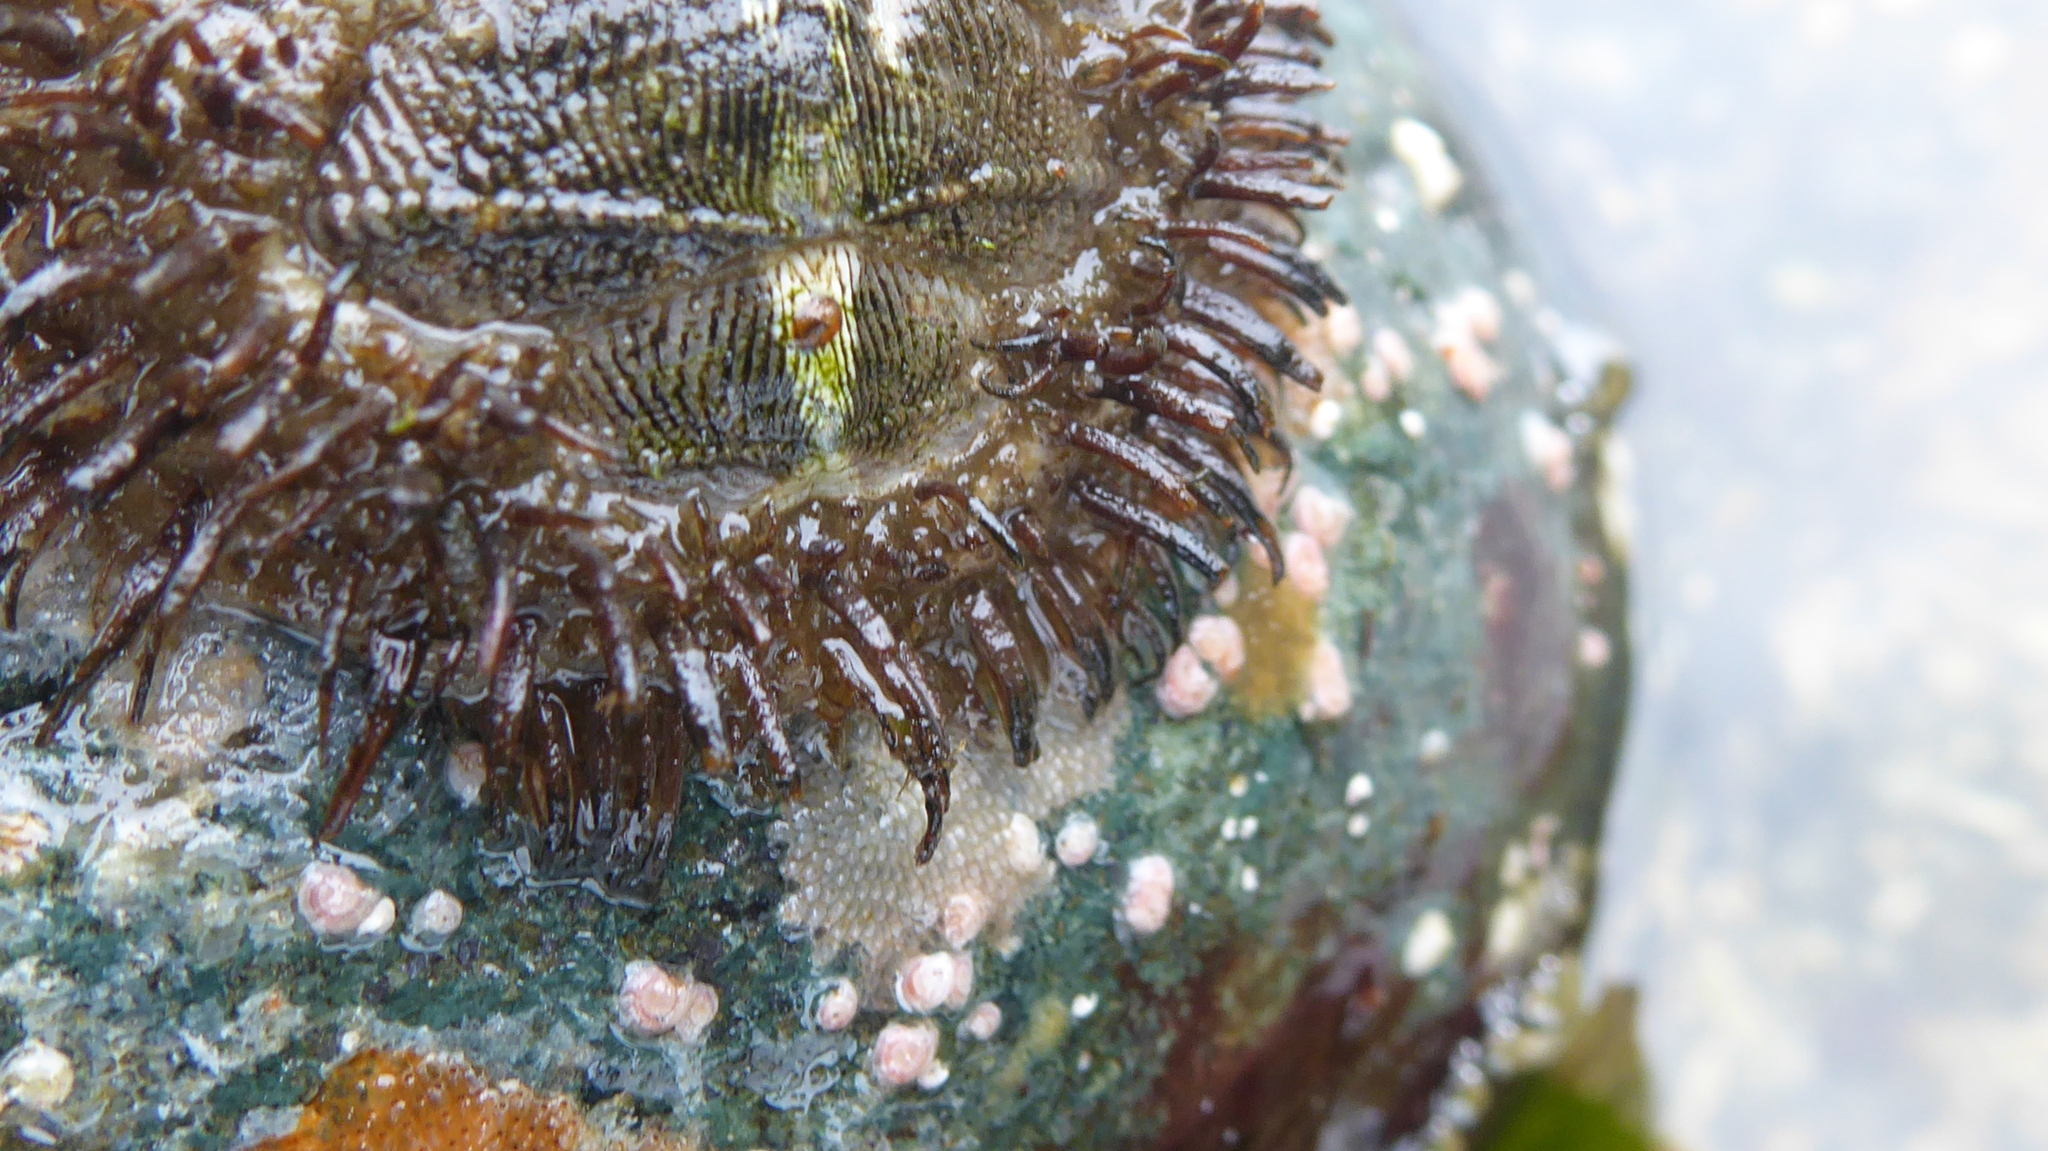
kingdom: Animalia
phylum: Mollusca
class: Polyplacophora
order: Chitonida
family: Mopaliidae
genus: Mopalia
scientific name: Mopalia muscosa
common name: Mossy chiton
